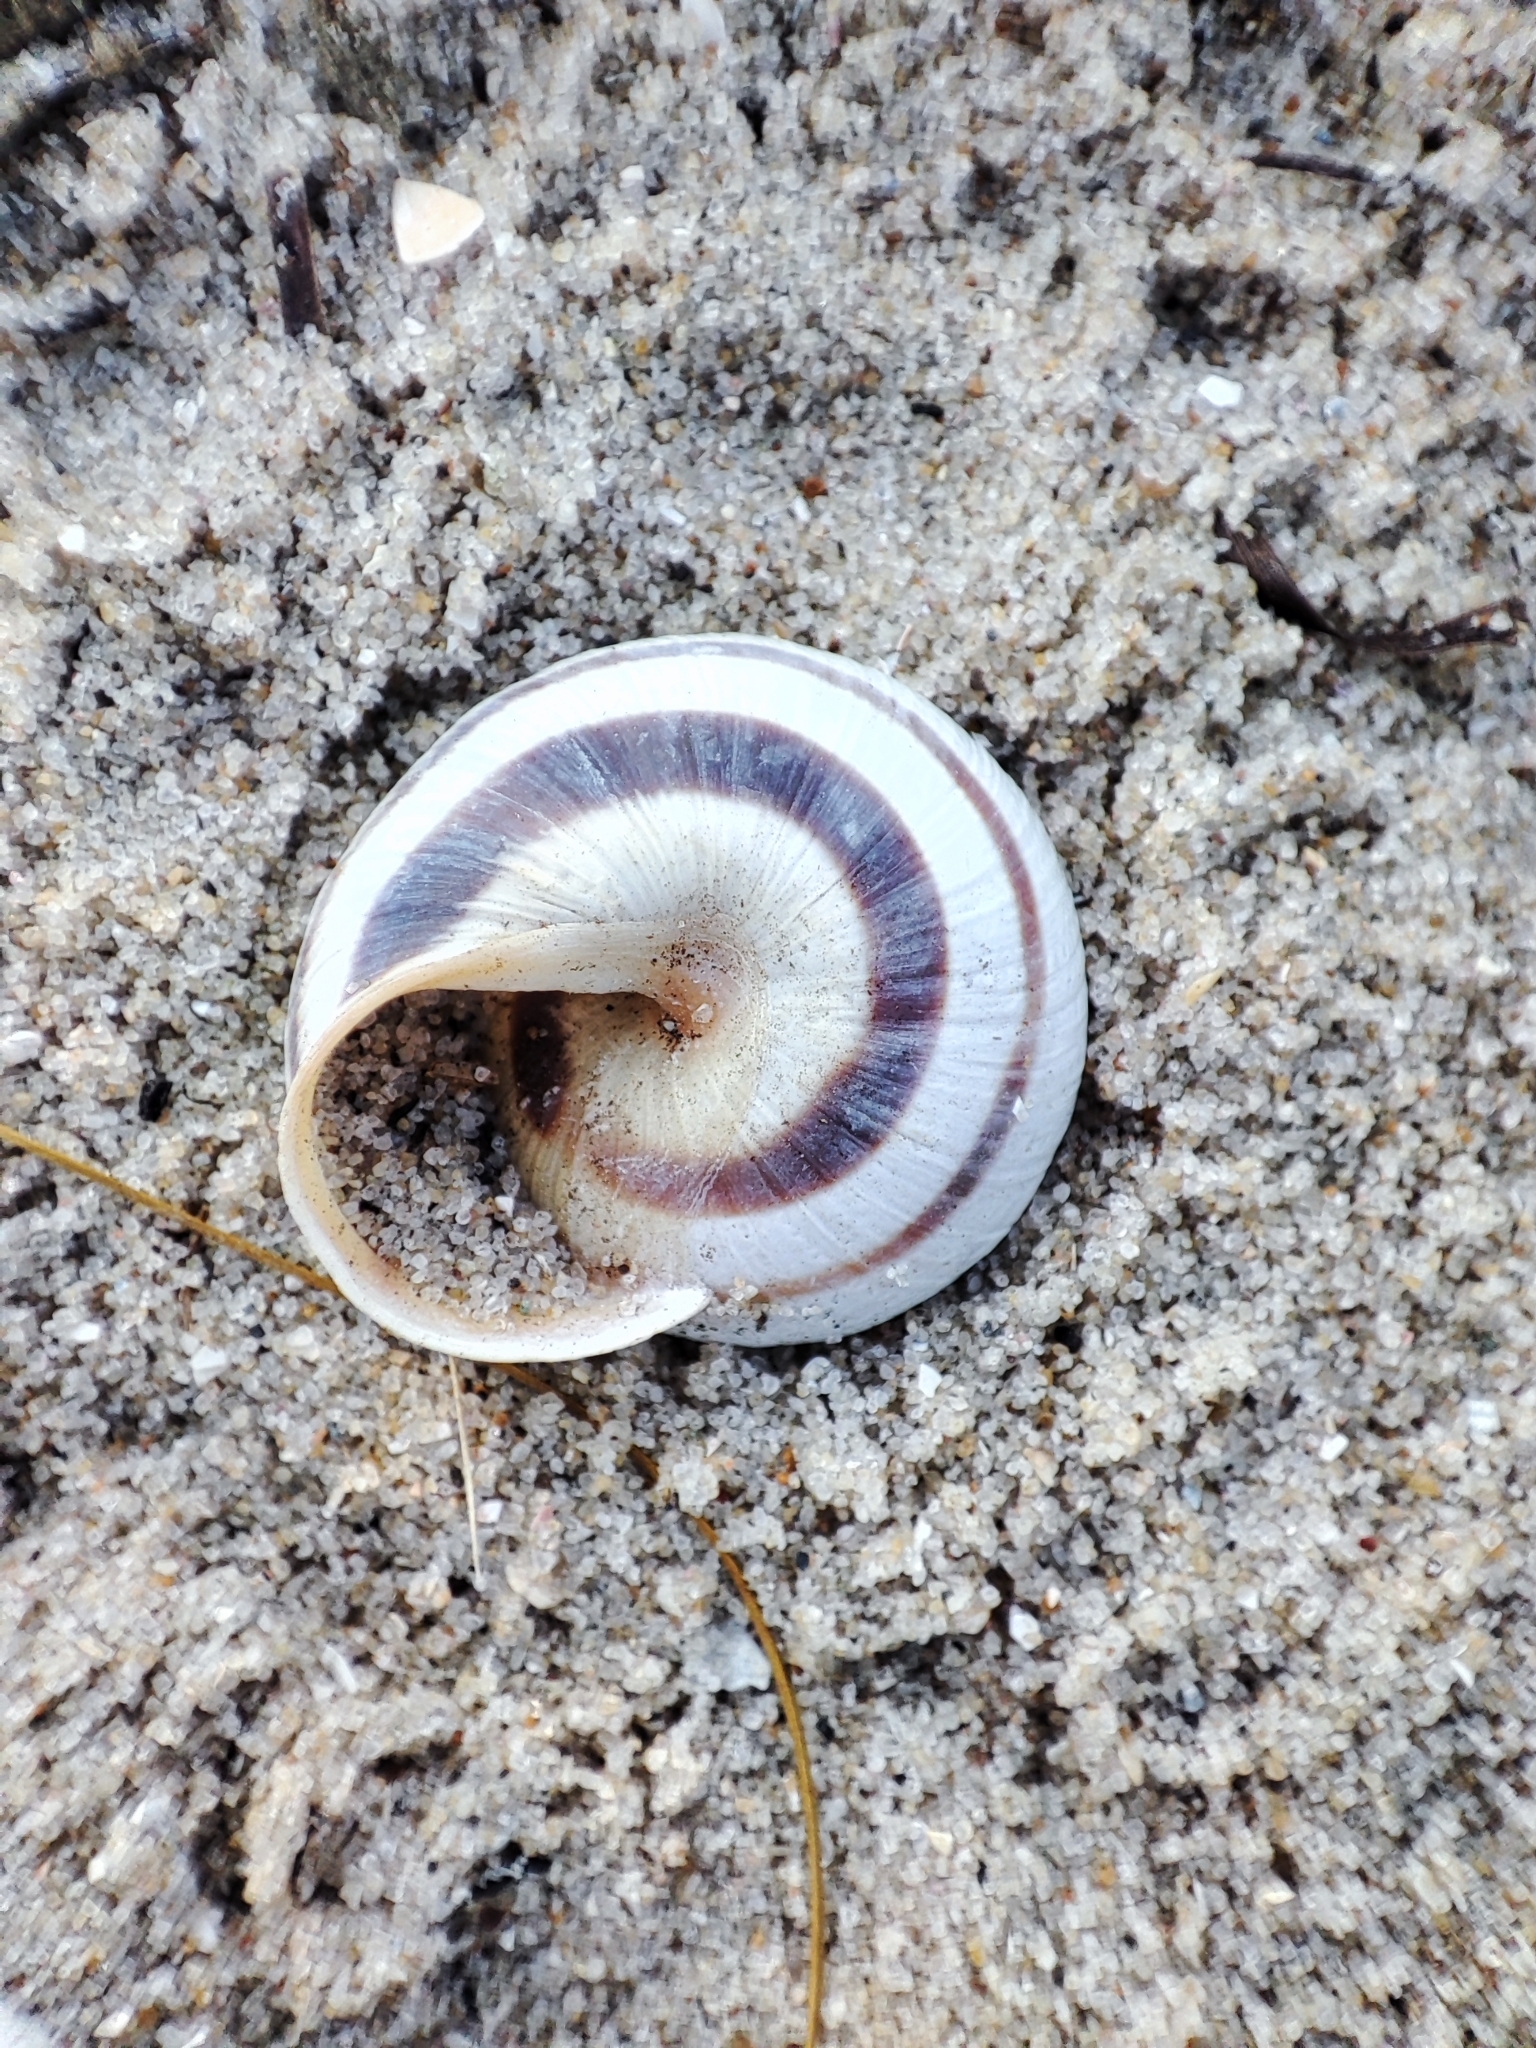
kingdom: Animalia
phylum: Mollusca
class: Gastropoda
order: Stylommatophora
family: Helicidae
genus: Caucasotachea
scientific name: Caucasotachea vindobonensis
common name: European helicid land snail
